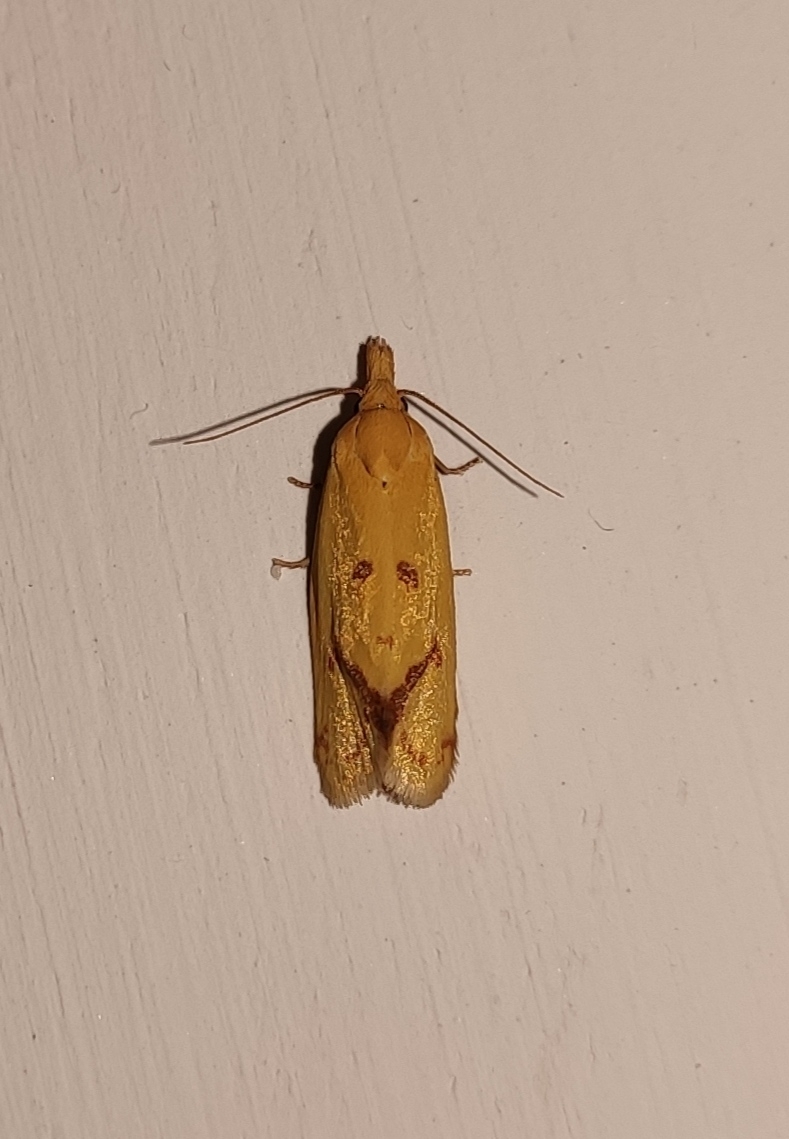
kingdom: Animalia
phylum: Arthropoda
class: Insecta
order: Lepidoptera
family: Tortricidae
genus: Agapeta
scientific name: Agapeta hamana
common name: Common yellow conch
